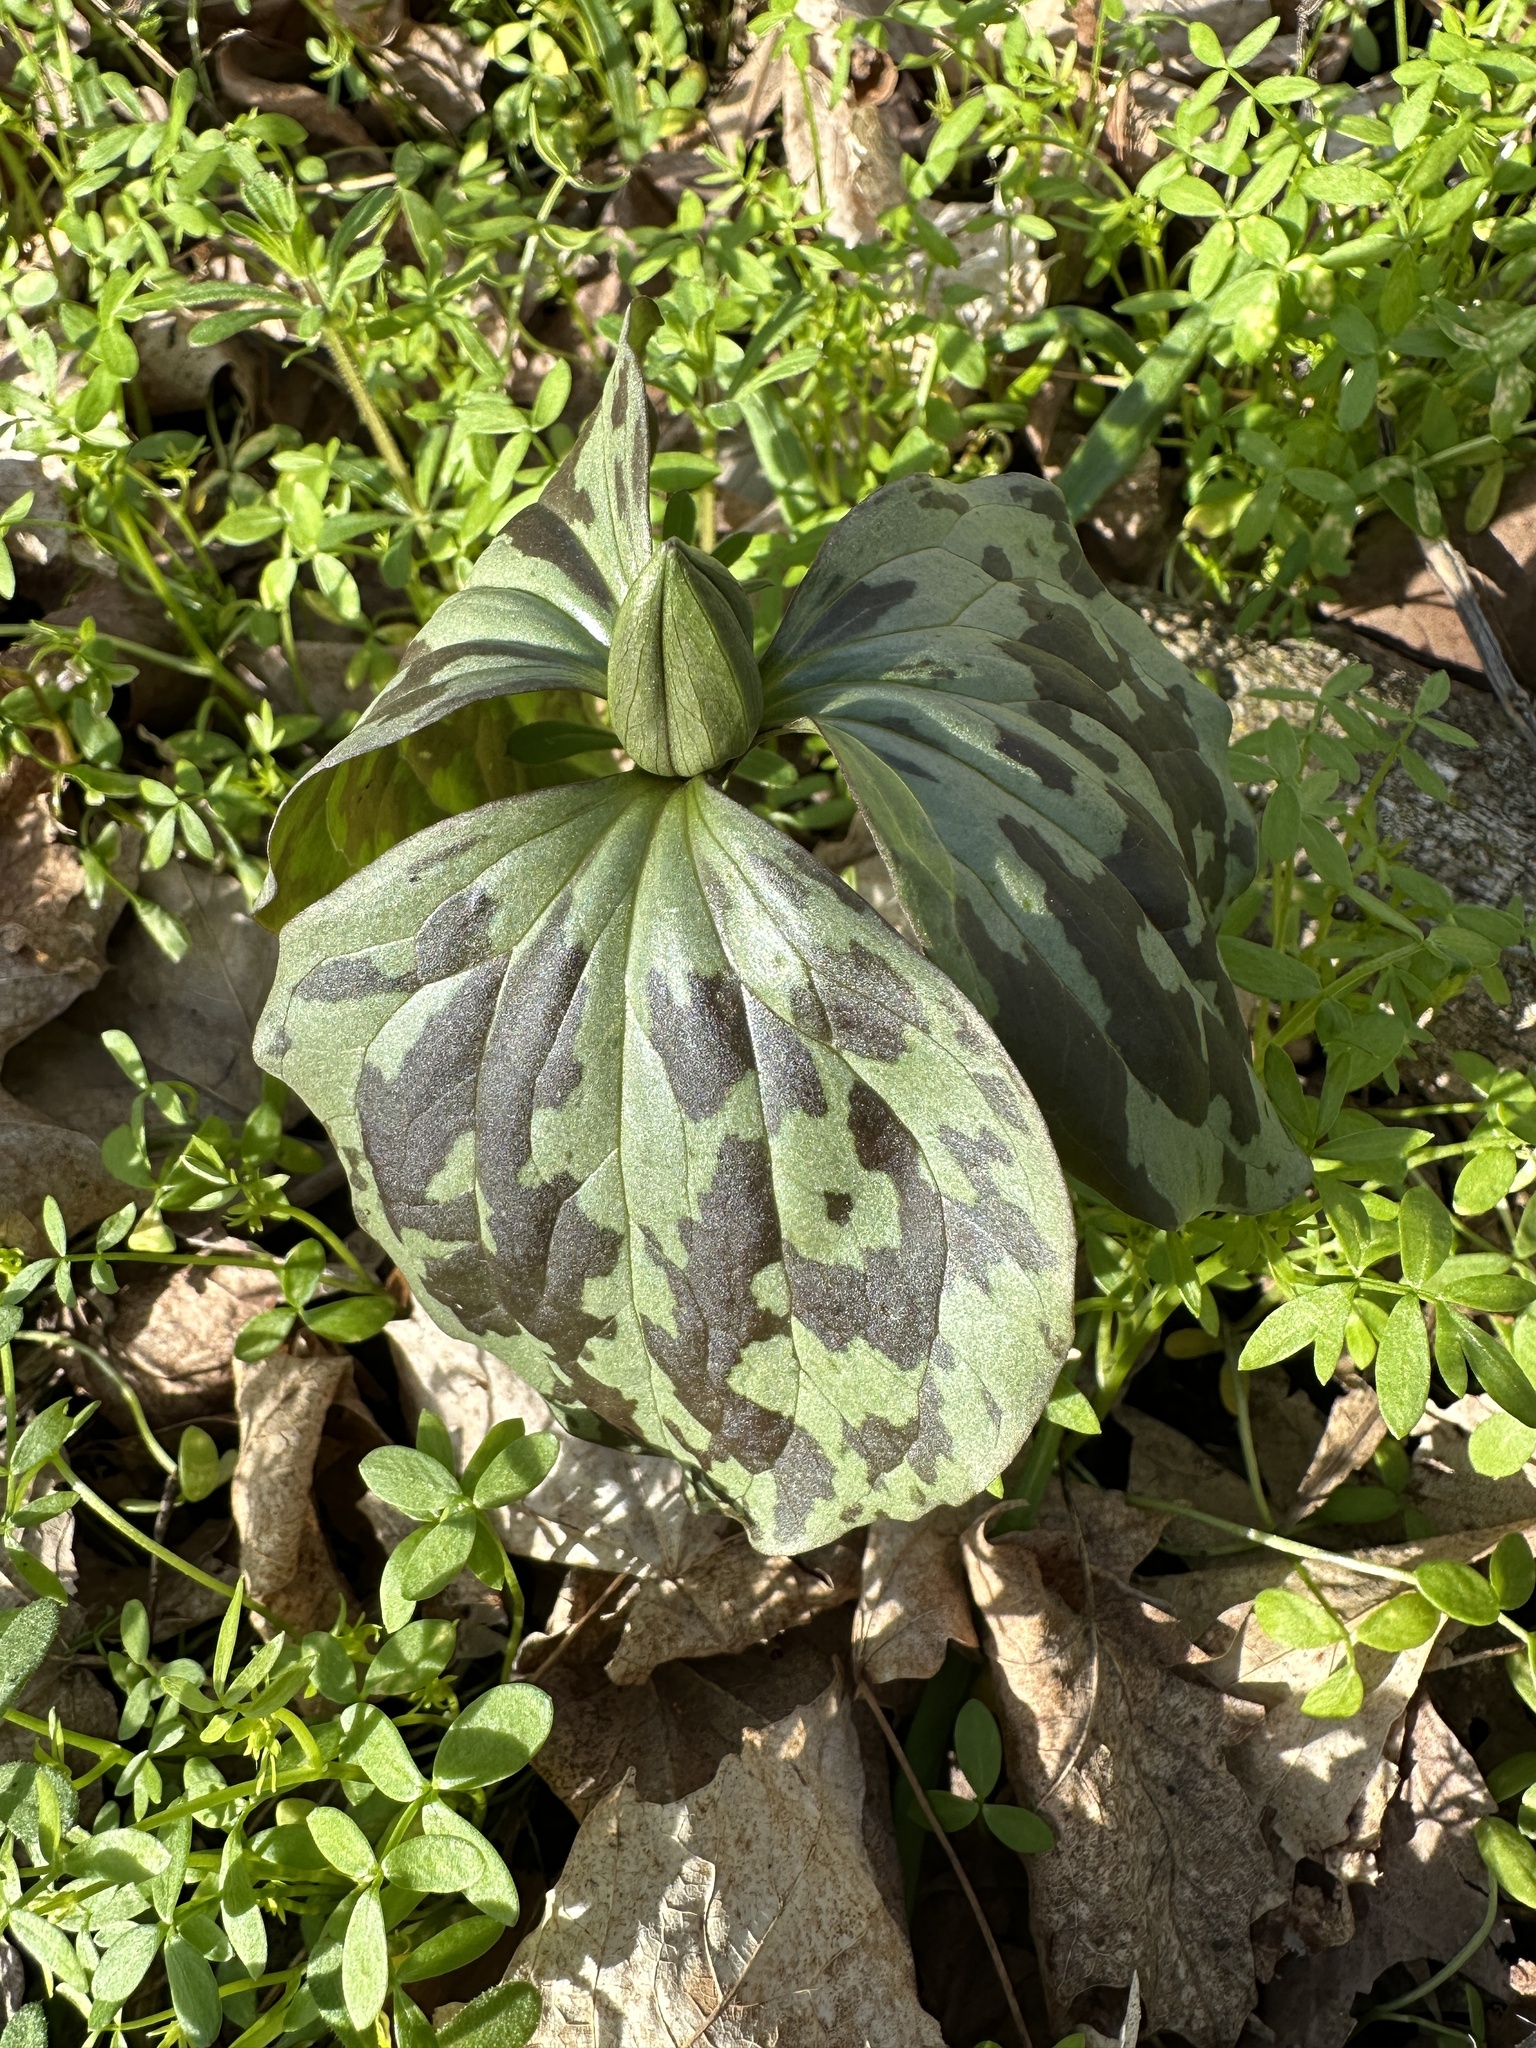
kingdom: Plantae
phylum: Tracheophyta
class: Liliopsida
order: Liliales
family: Melanthiaceae
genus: Trillium
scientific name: Trillium recurvatum
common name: Bloody butcher
